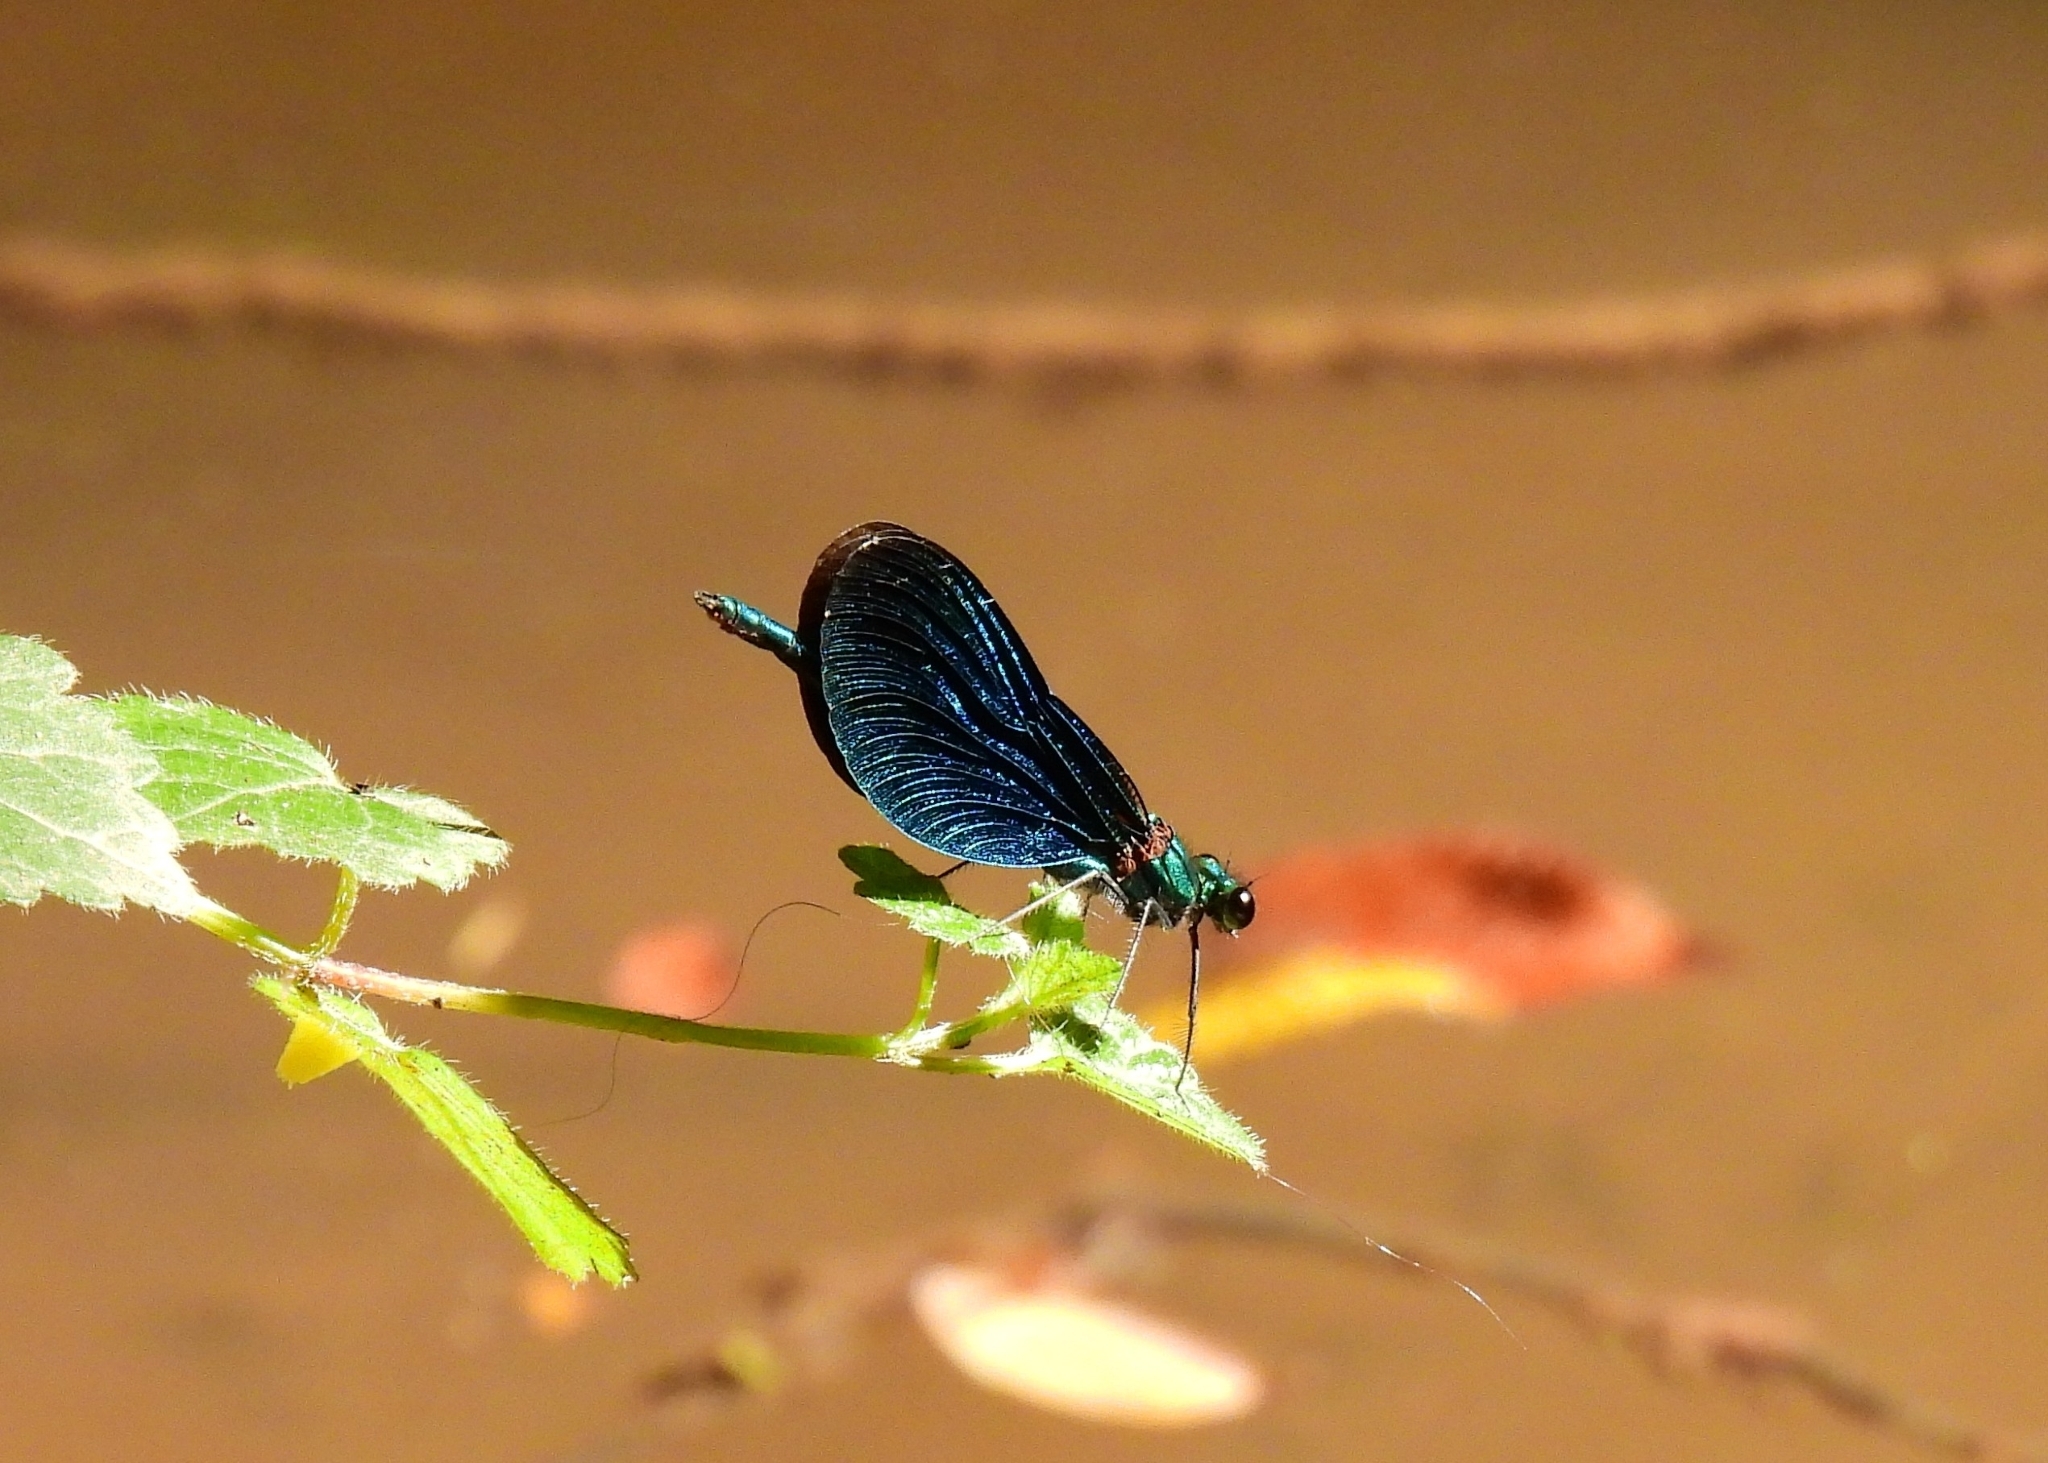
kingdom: Animalia
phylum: Arthropoda
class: Insecta
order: Odonata
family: Calopterygidae
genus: Calopteryx
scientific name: Calopteryx virgo
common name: Beautiful demoiselle
